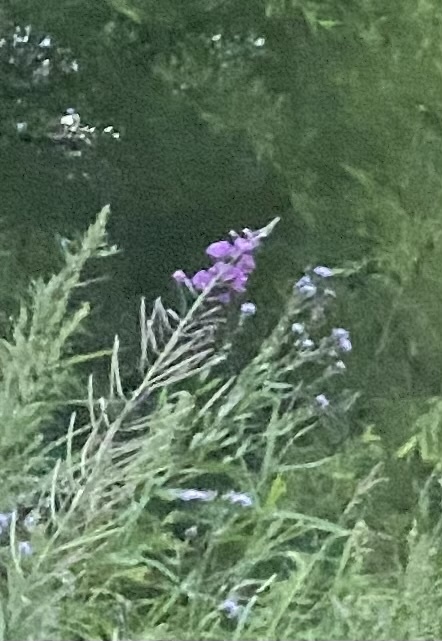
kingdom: Plantae
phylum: Tracheophyta
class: Magnoliopsida
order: Myrtales
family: Onagraceae
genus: Chamaenerion
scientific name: Chamaenerion angustifolium
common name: Fireweed
